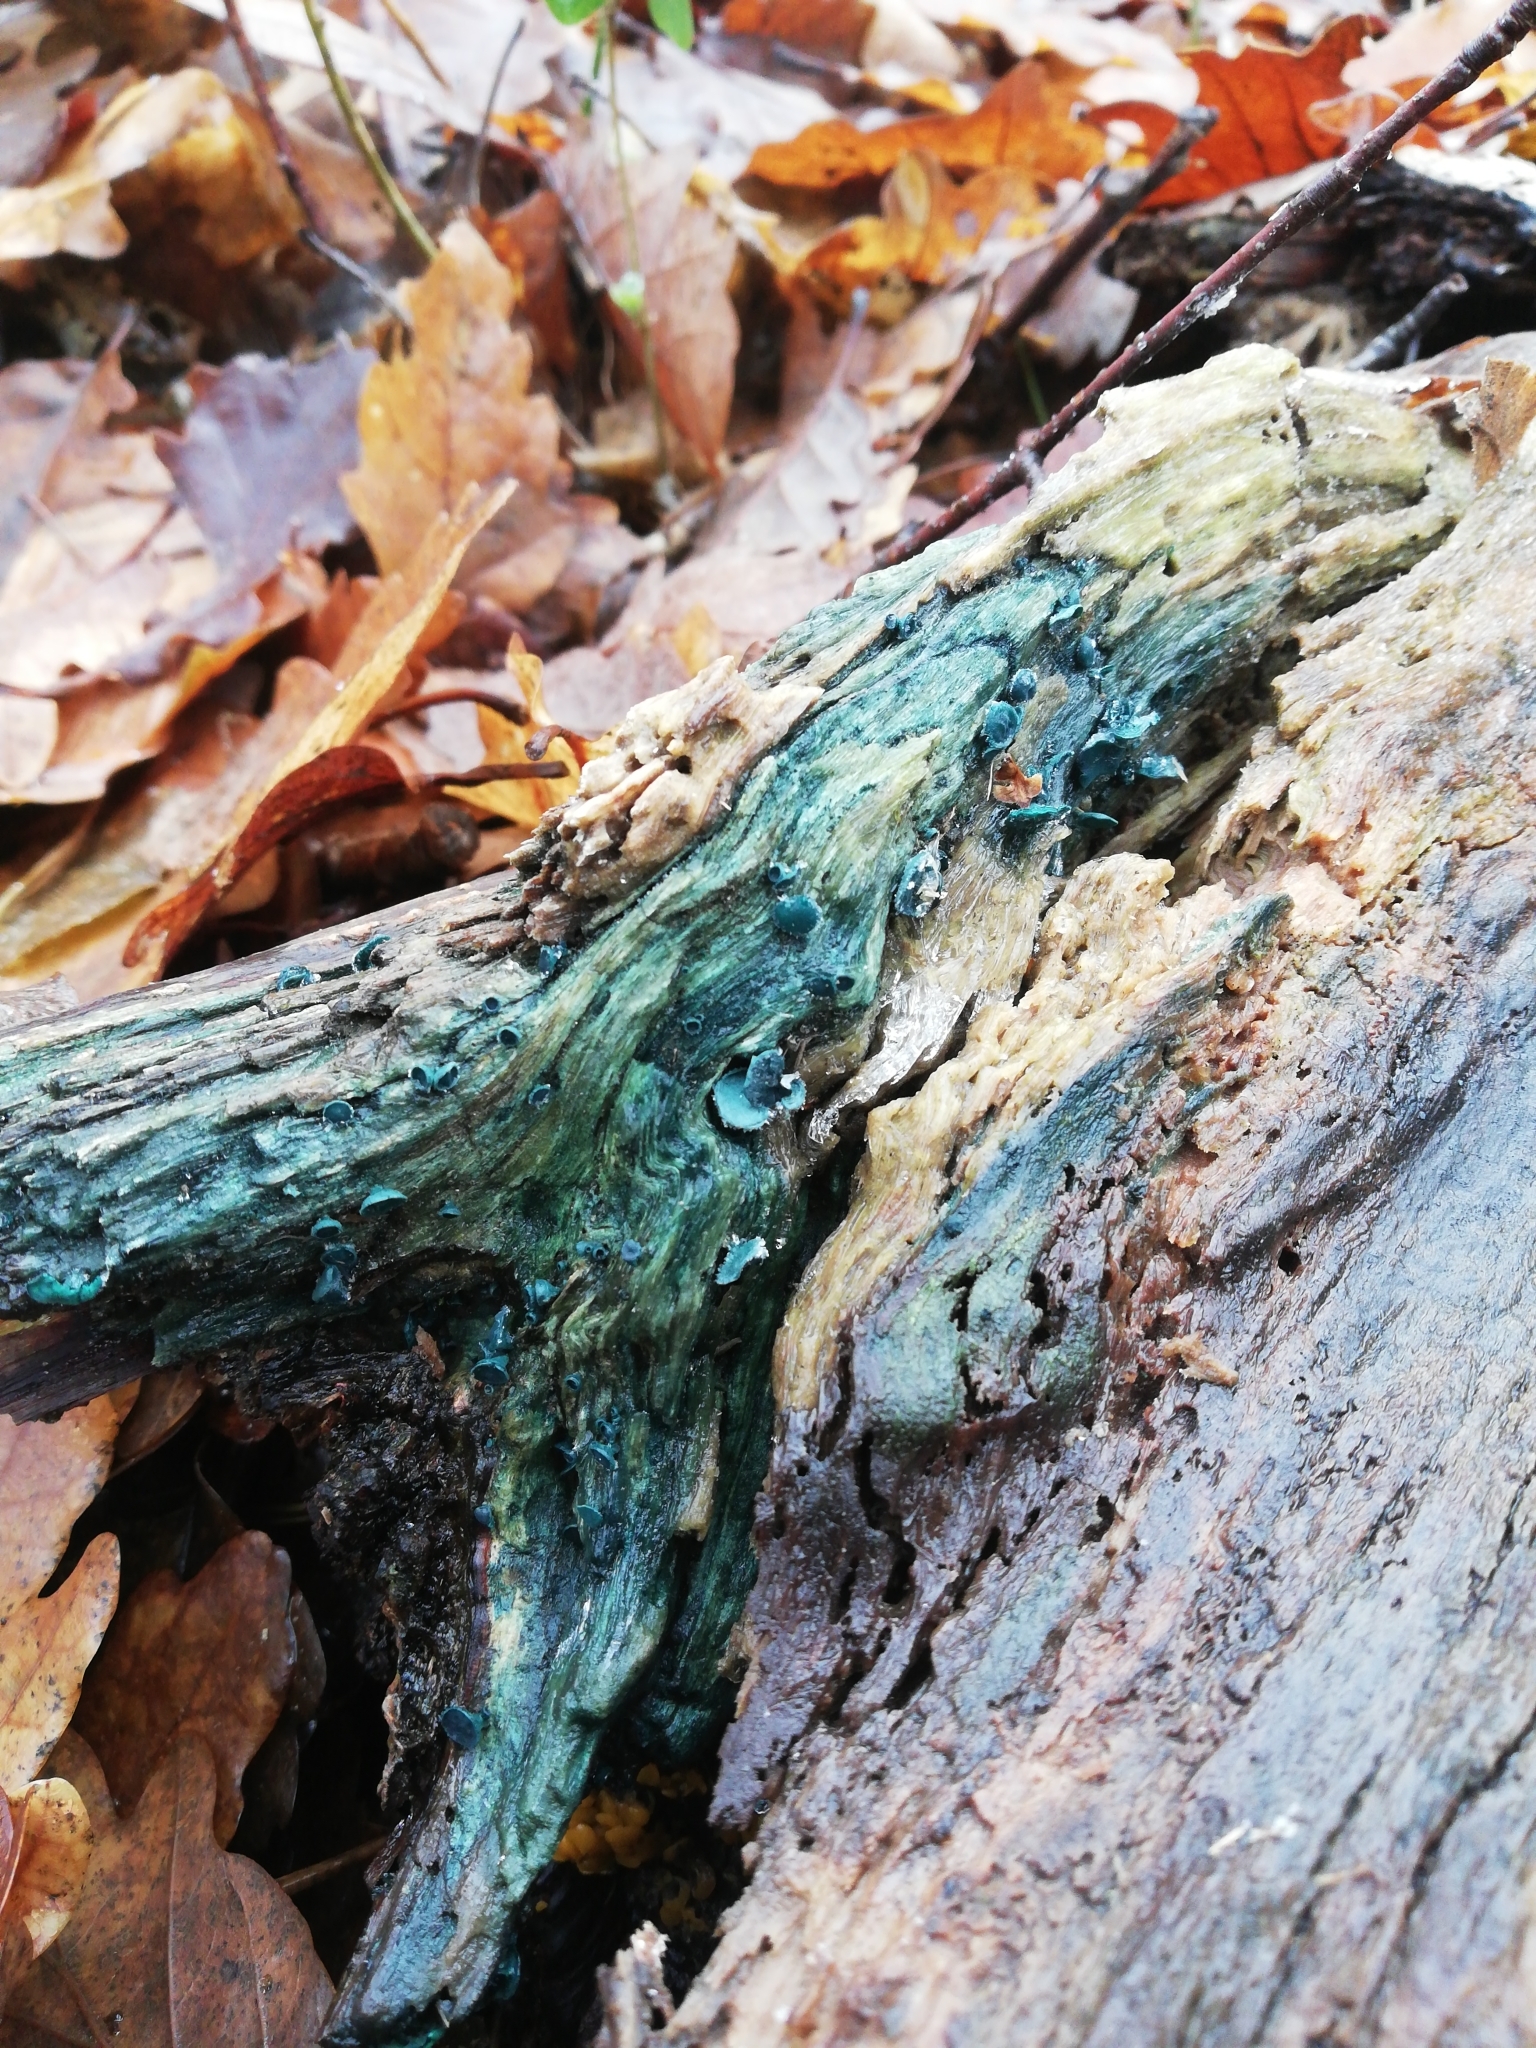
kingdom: Fungi
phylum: Ascomycota
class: Leotiomycetes
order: Helotiales
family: Chlorociboriaceae
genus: Chlorociboria
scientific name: Chlorociboria
